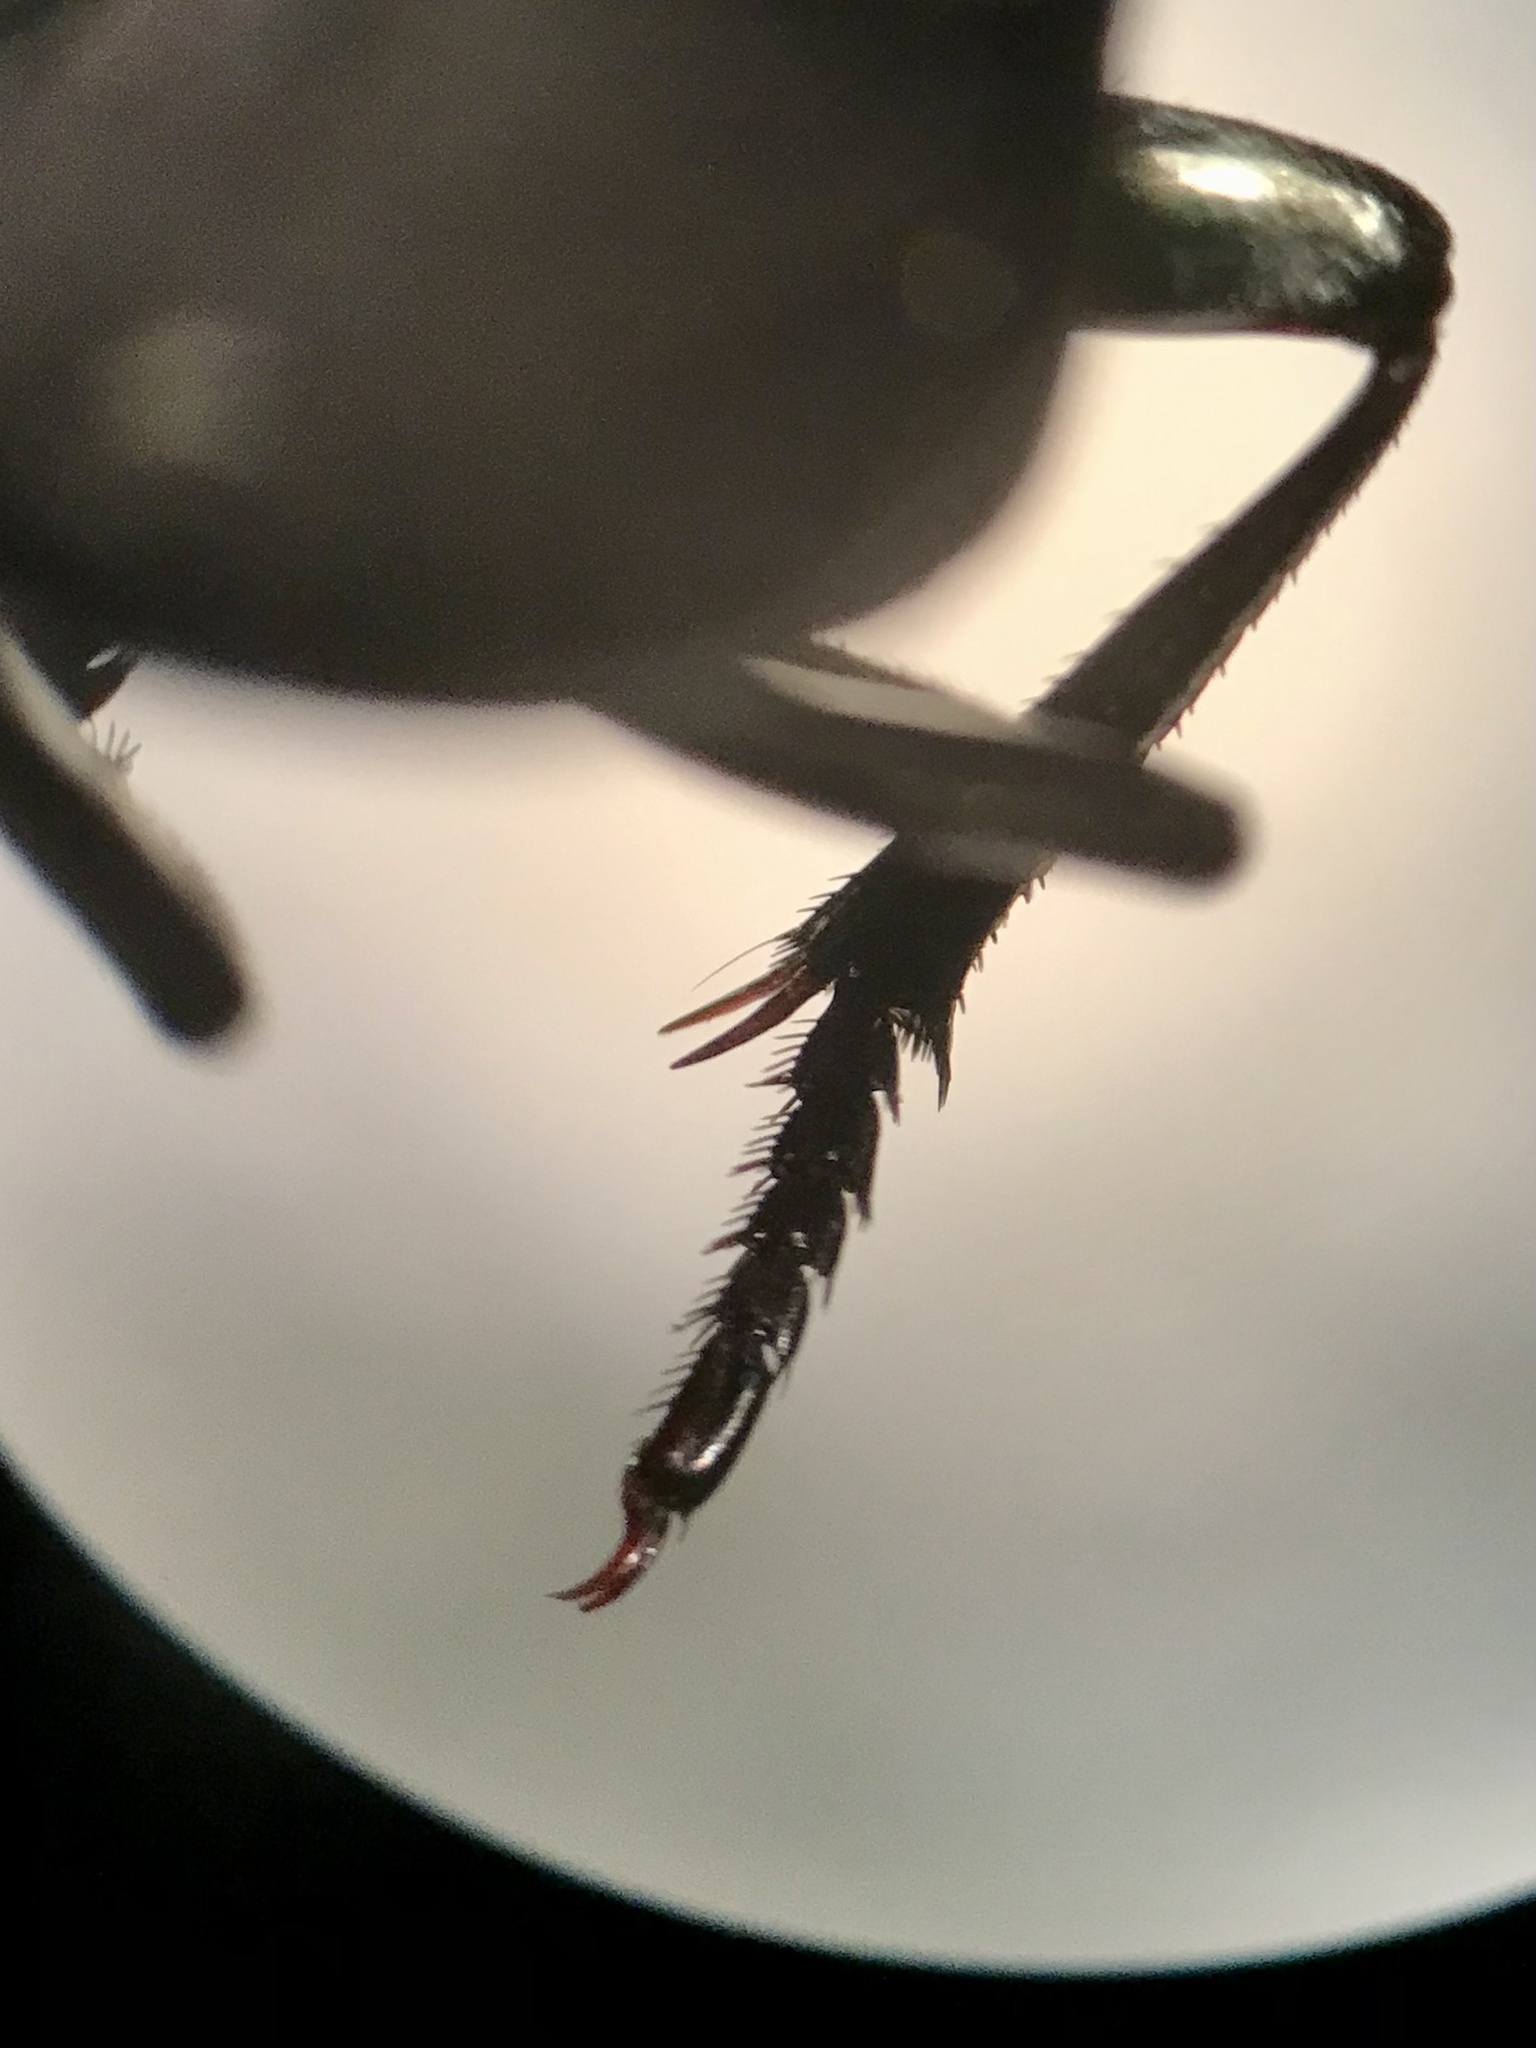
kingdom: Animalia
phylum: Arthropoda
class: Insecta
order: Coleoptera
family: Scarabaeidae
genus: Melanocanthon
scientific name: Melanocanthon nigricornis
